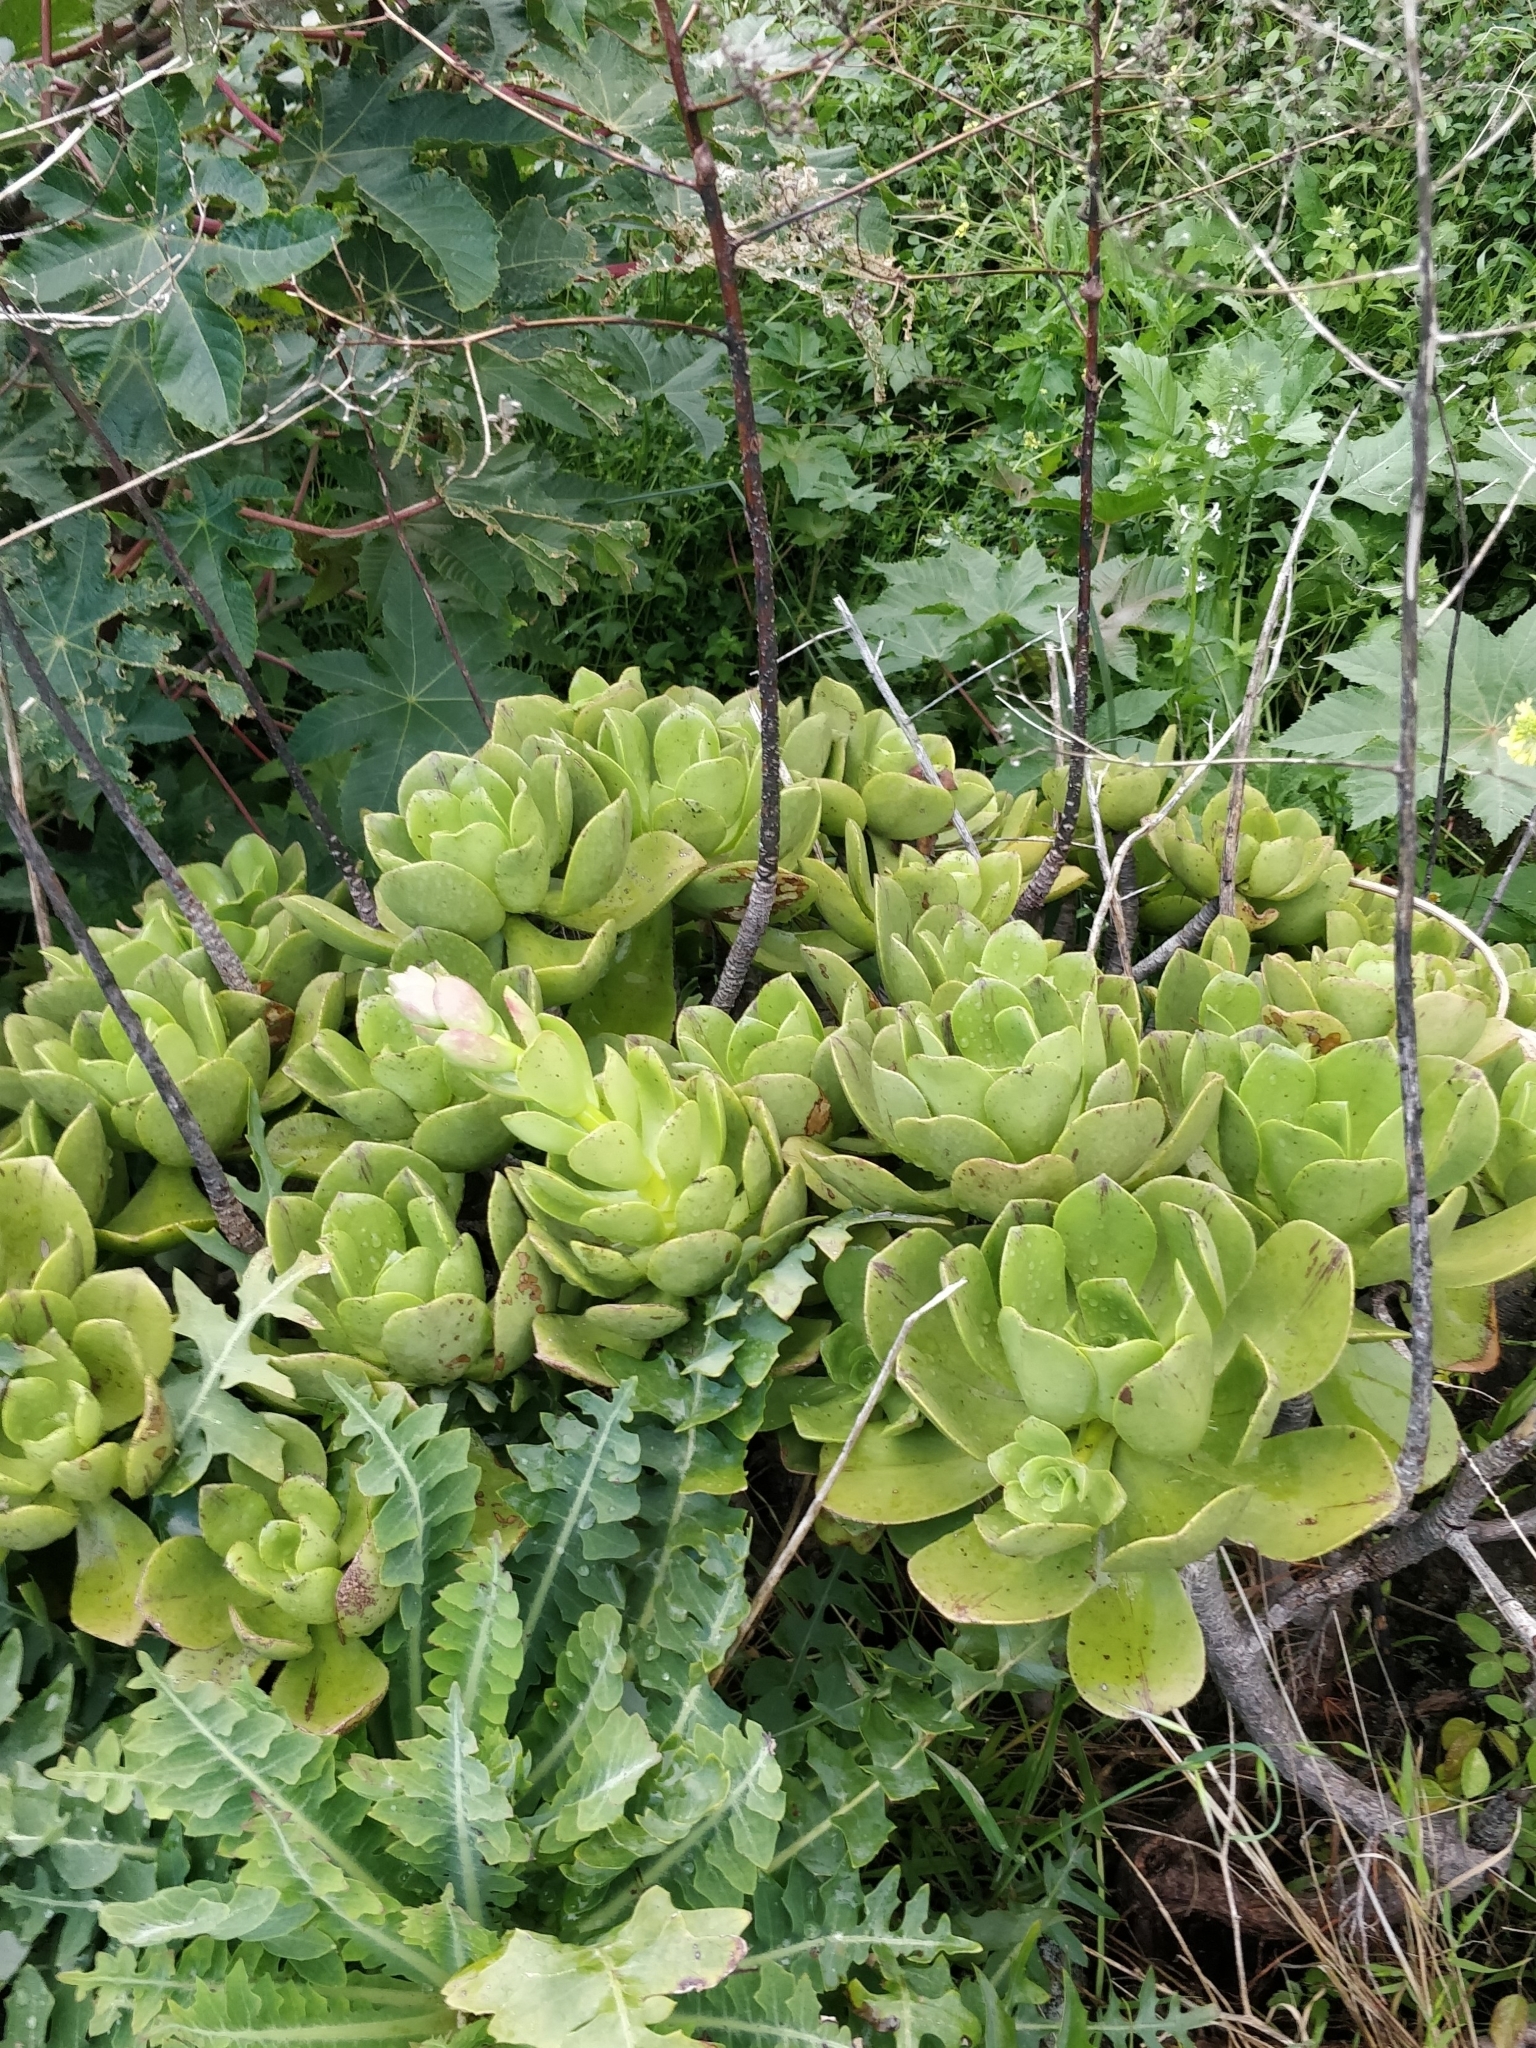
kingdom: Plantae
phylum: Tracheophyta
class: Magnoliopsida
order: Saxifragales
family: Crassulaceae
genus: Aeonium
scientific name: Aeonium glutinosum
